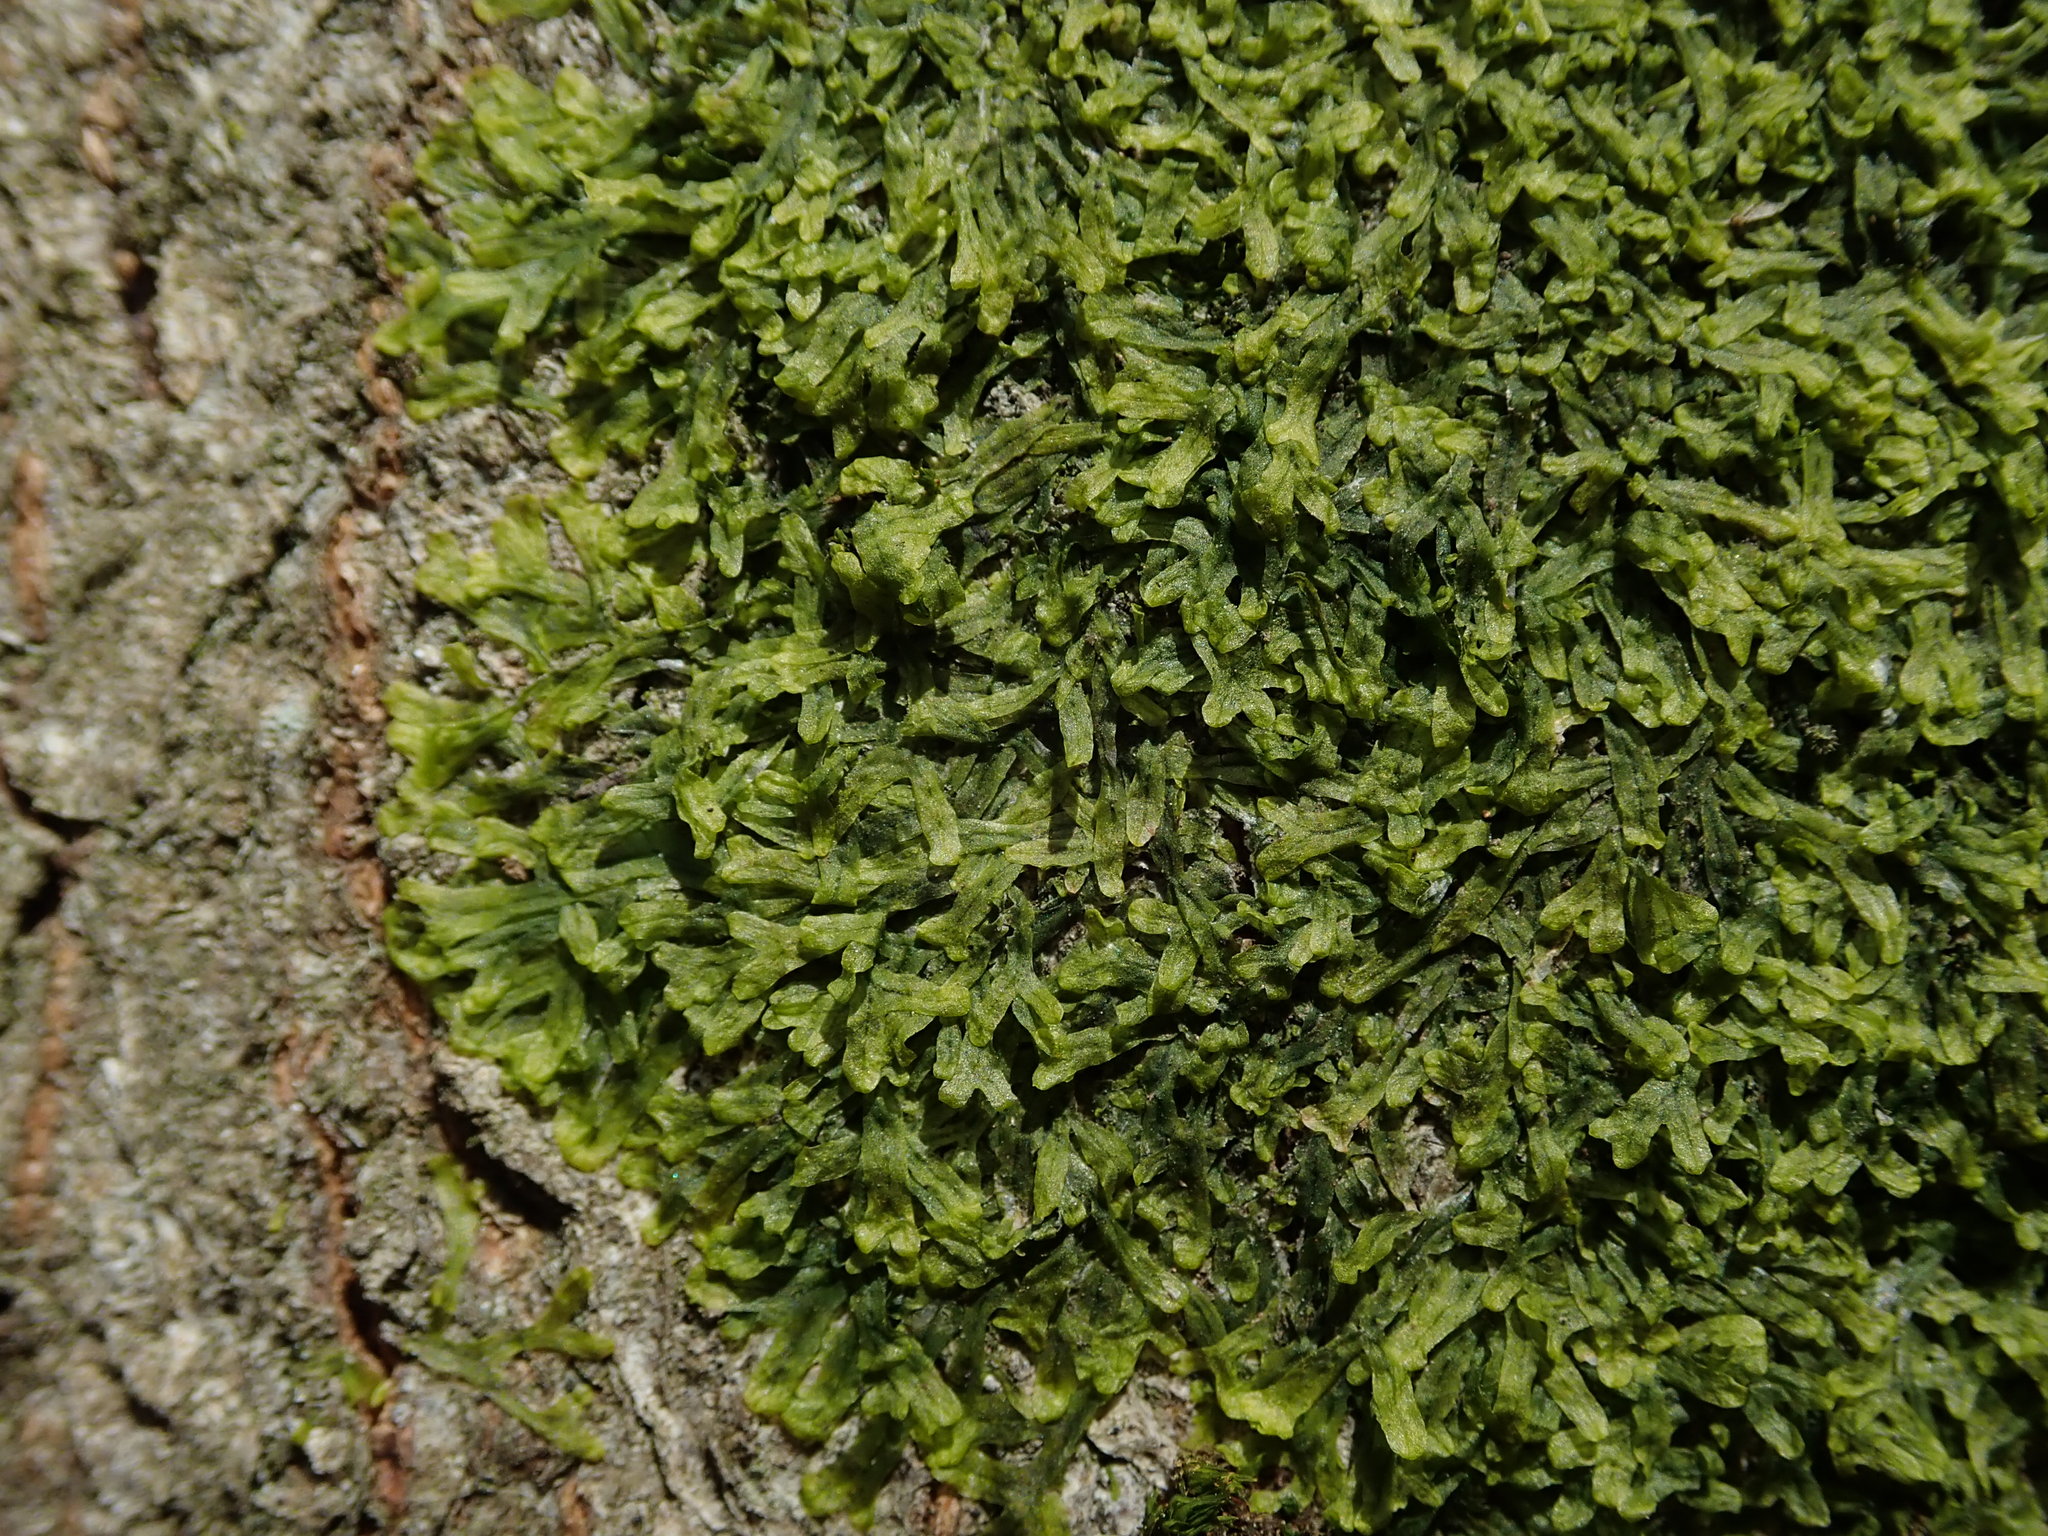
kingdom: Plantae
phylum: Marchantiophyta
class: Jungermanniopsida
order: Metzgeriales
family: Metzgeriaceae
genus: Metzgeria
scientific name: Metzgeria furcata
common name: Forked veilwort
